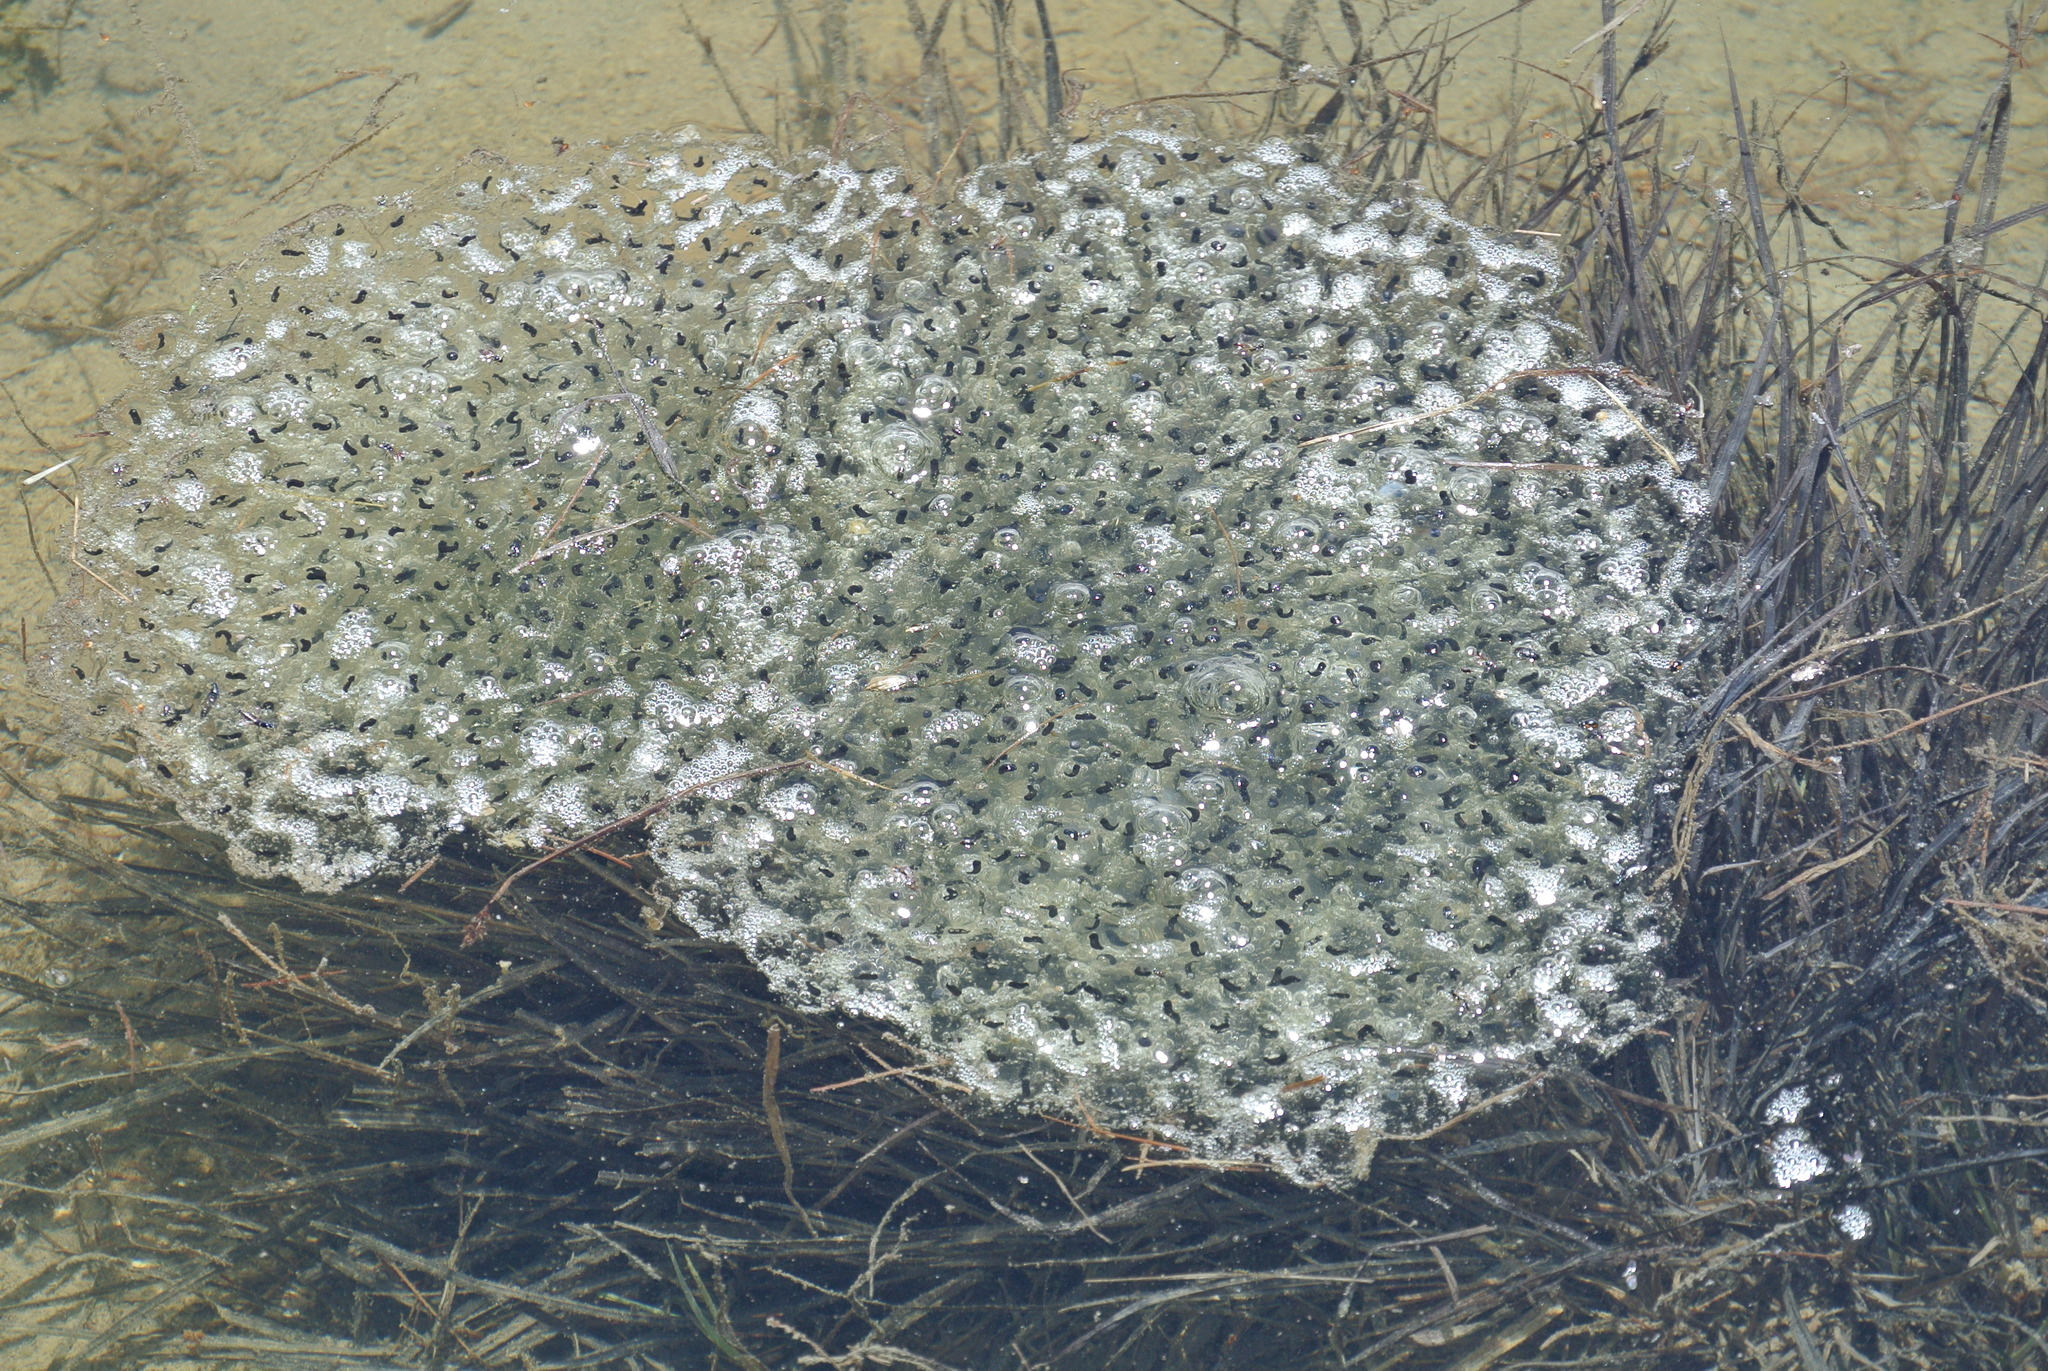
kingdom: Animalia
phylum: Chordata
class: Amphibia
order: Anura
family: Ranidae
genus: Rana
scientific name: Rana temporaria
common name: Common frog
